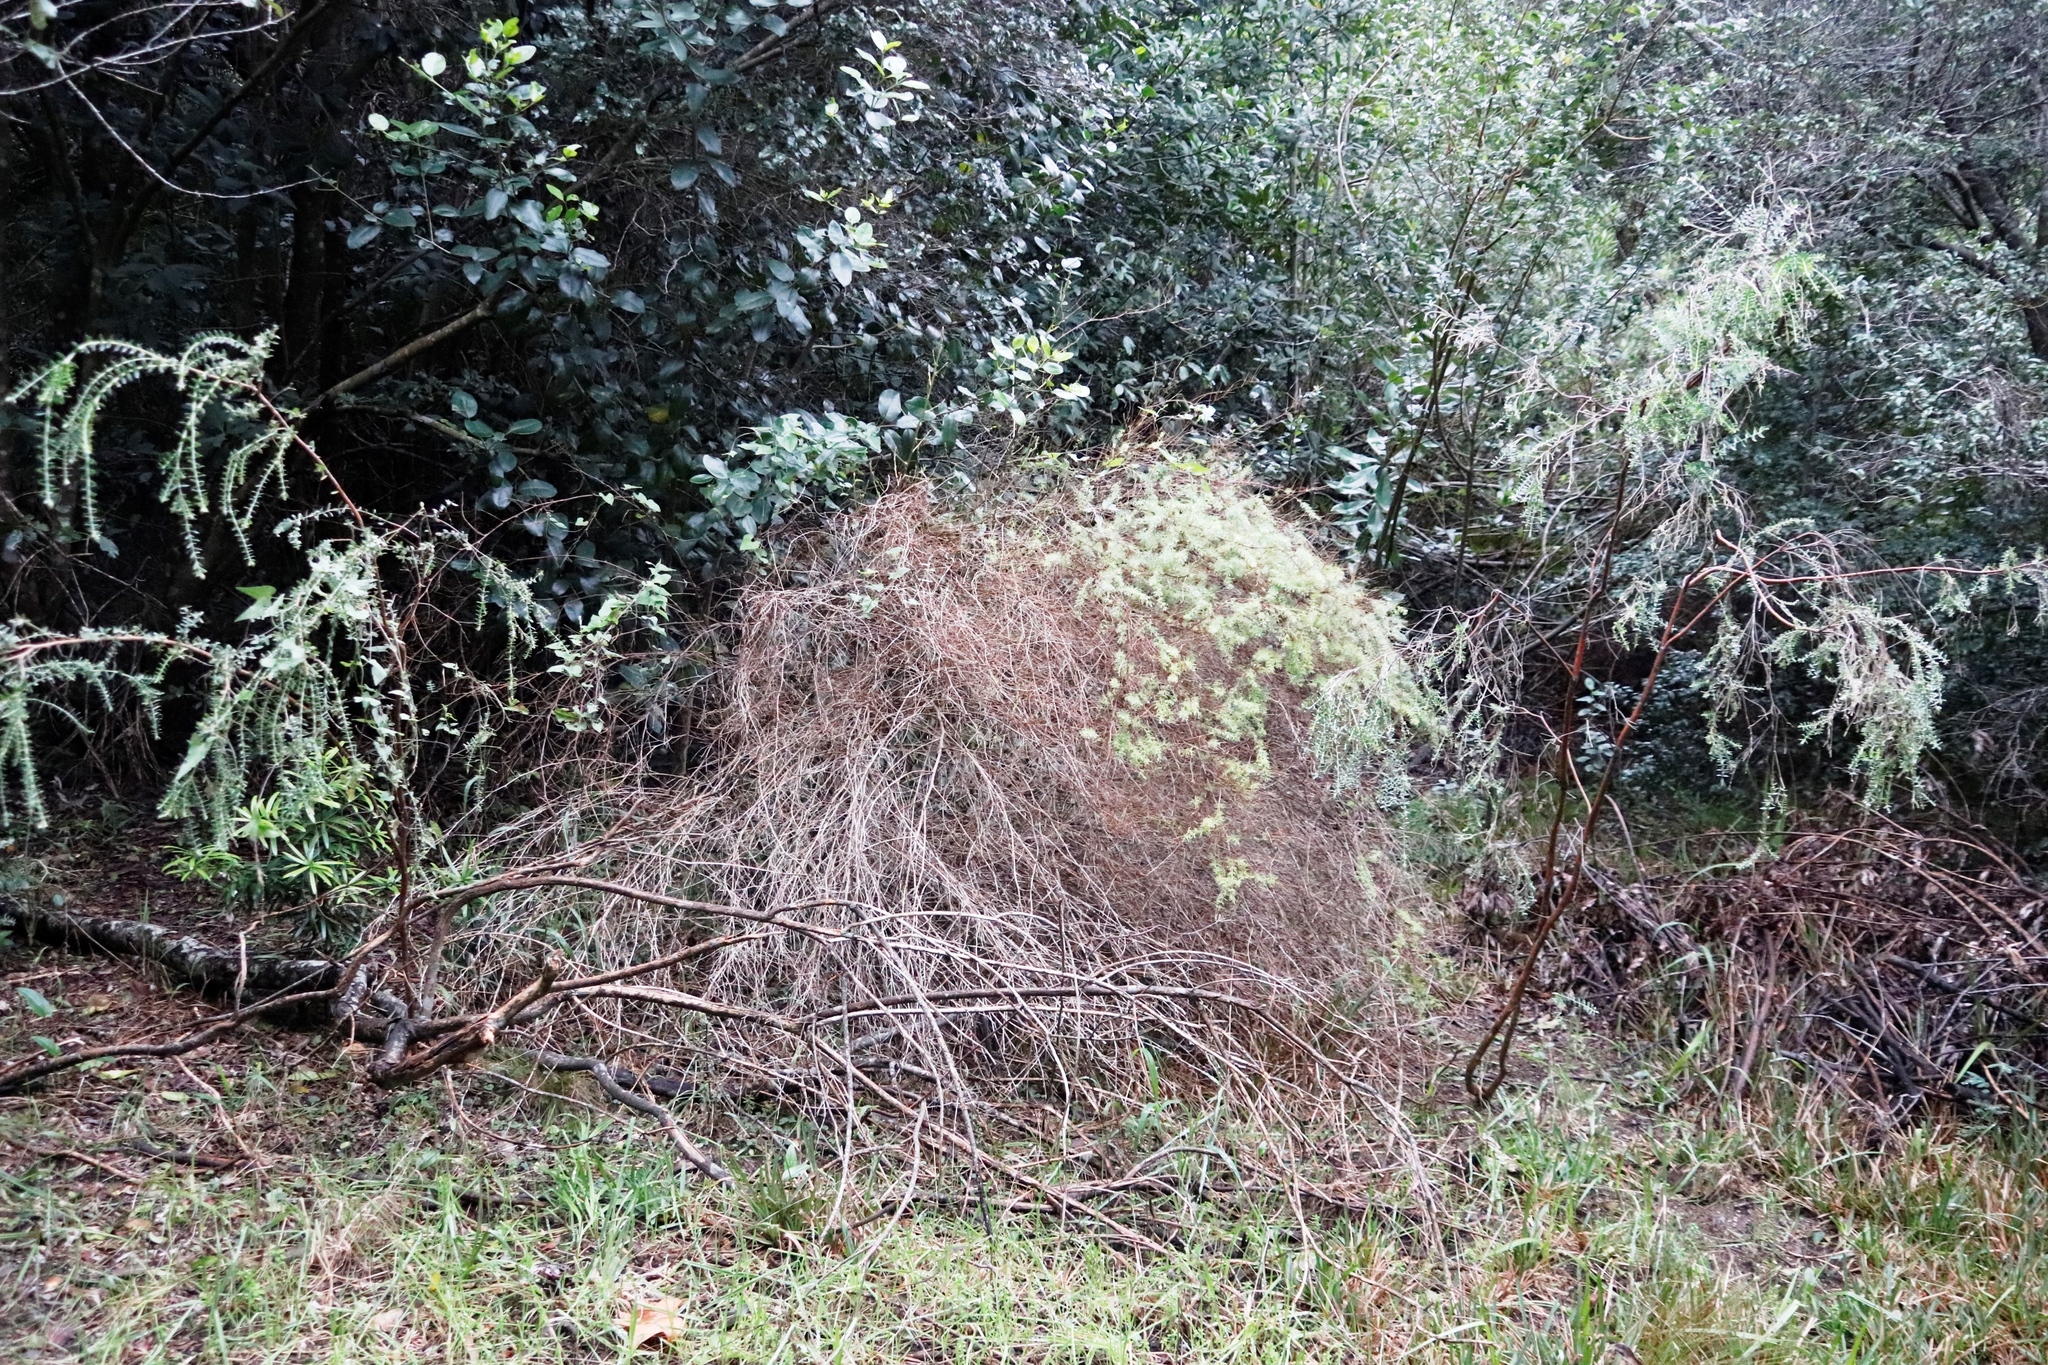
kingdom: Plantae
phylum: Tracheophyta
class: Liliopsida
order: Asparagales
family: Asparagaceae
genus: Asparagus
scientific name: Asparagus rubicundus
